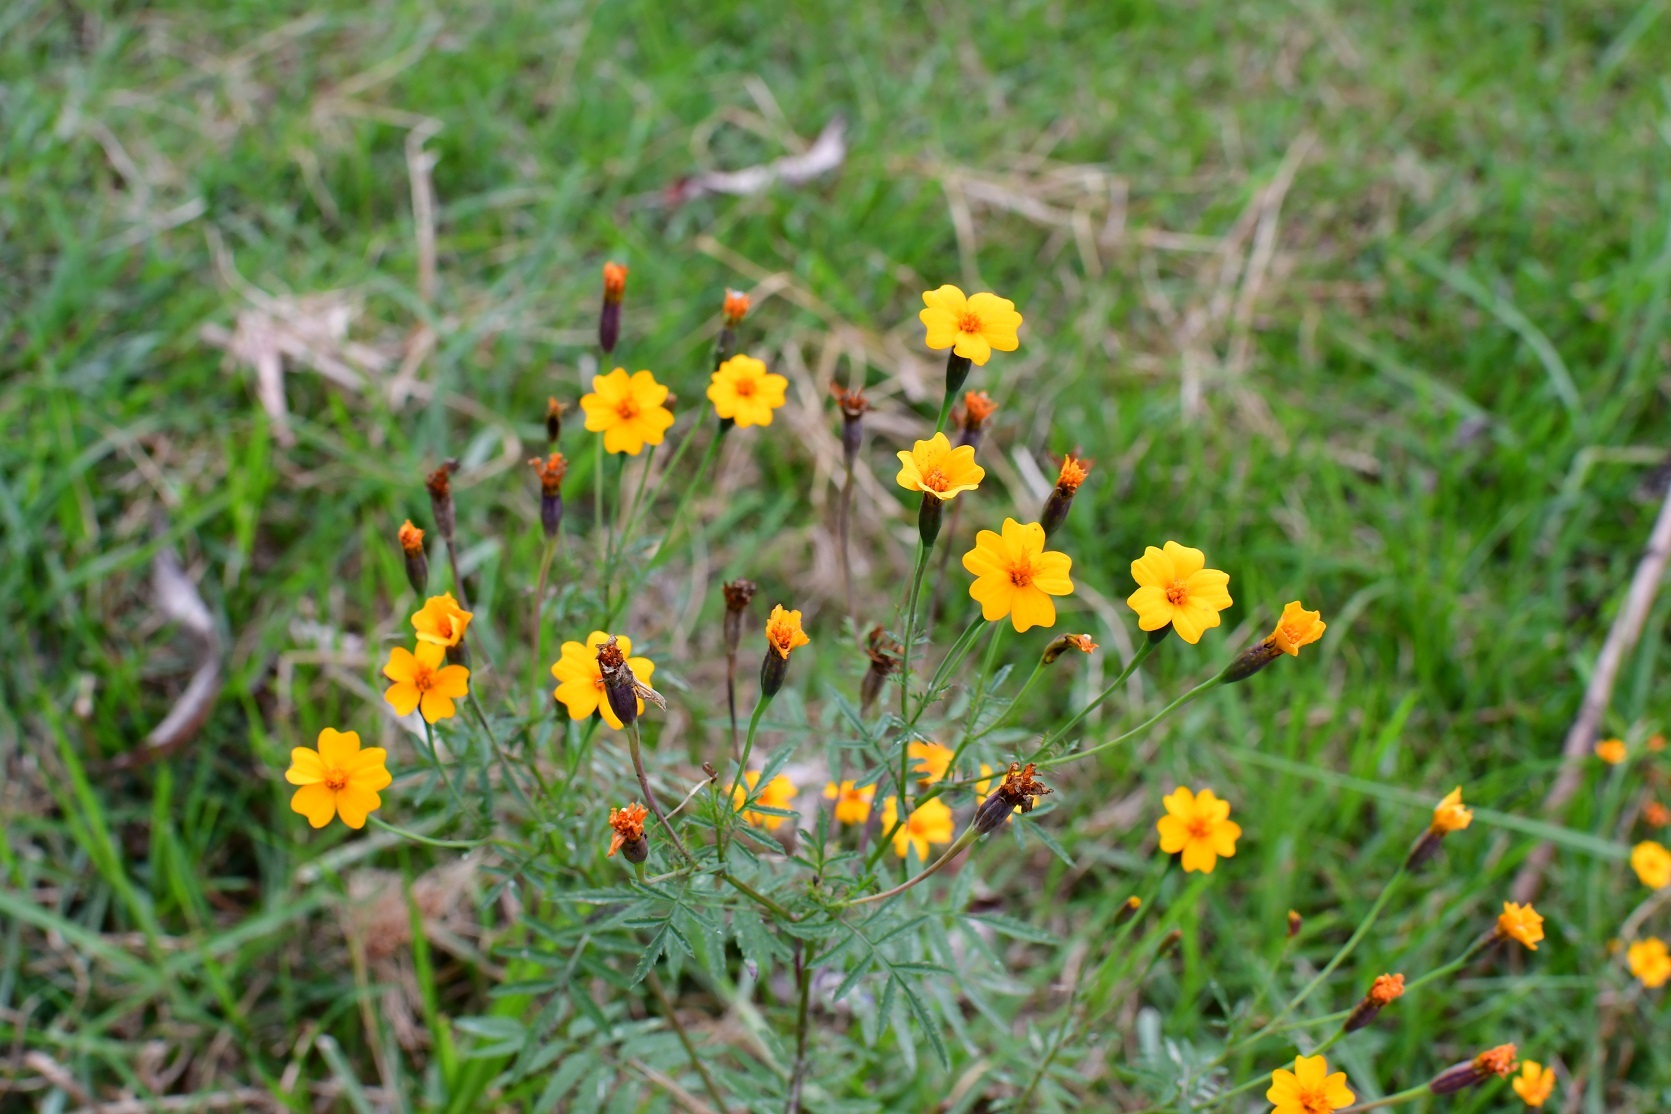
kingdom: Plantae
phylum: Tracheophyta
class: Magnoliopsida
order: Asterales
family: Asteraceae
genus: Tagetes
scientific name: Tagetes tenuifolia
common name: Signet marigold
